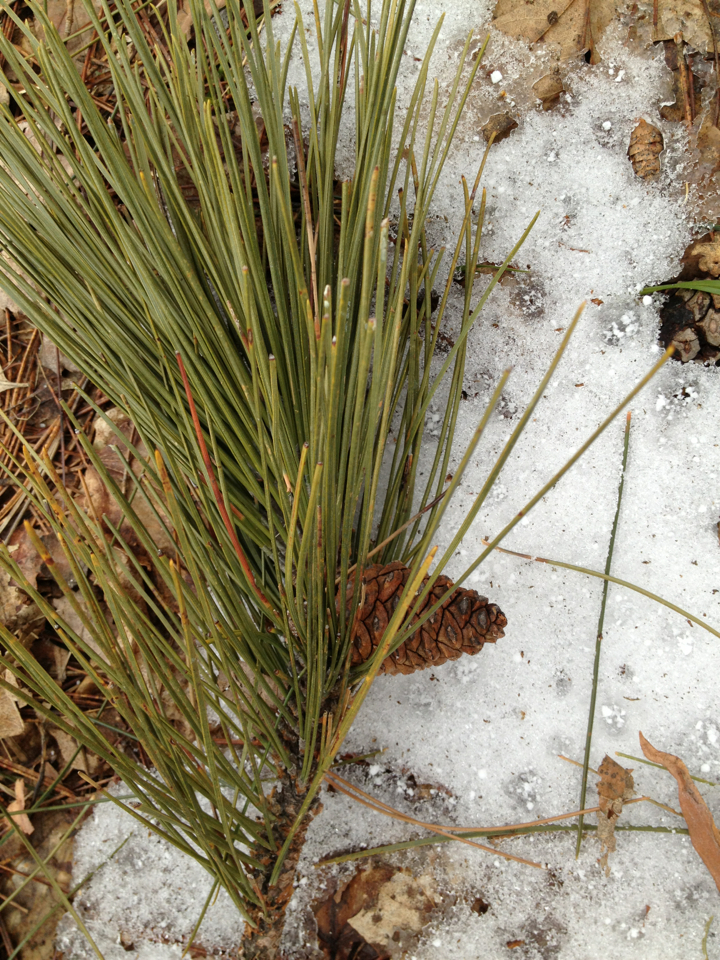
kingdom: Plantae
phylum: Tracheophyta
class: Pinopsida
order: Pinales
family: Pinaceae
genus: Pinus
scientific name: Pinus resinosa
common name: Norway pine
